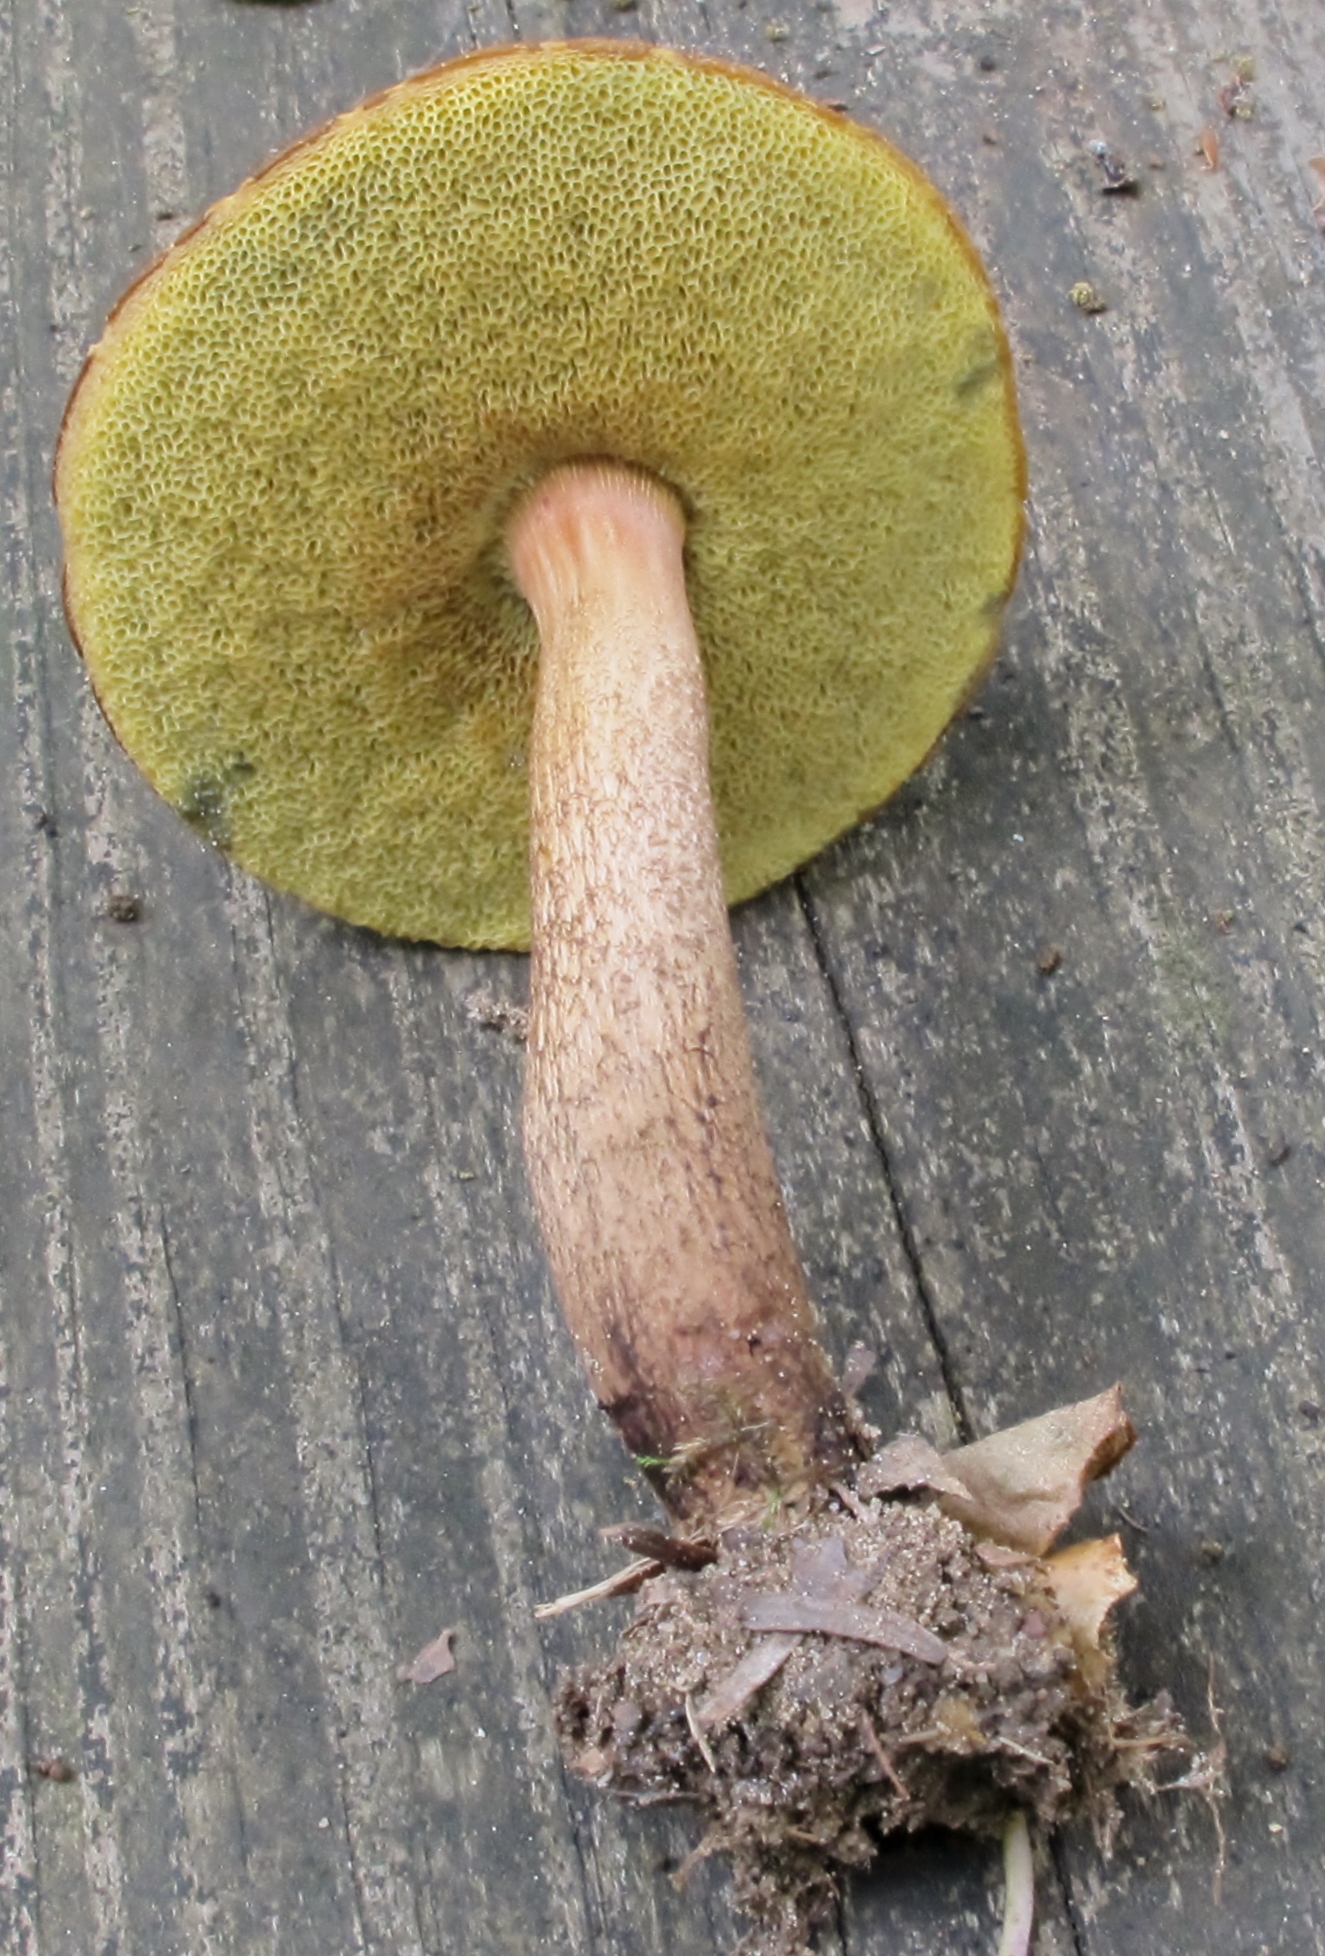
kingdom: Fungi
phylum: Basidiomycota
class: Agaricomycetes
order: Boletales
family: Boletaceae
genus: Boletellus
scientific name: Boletellus chrysenteroides
